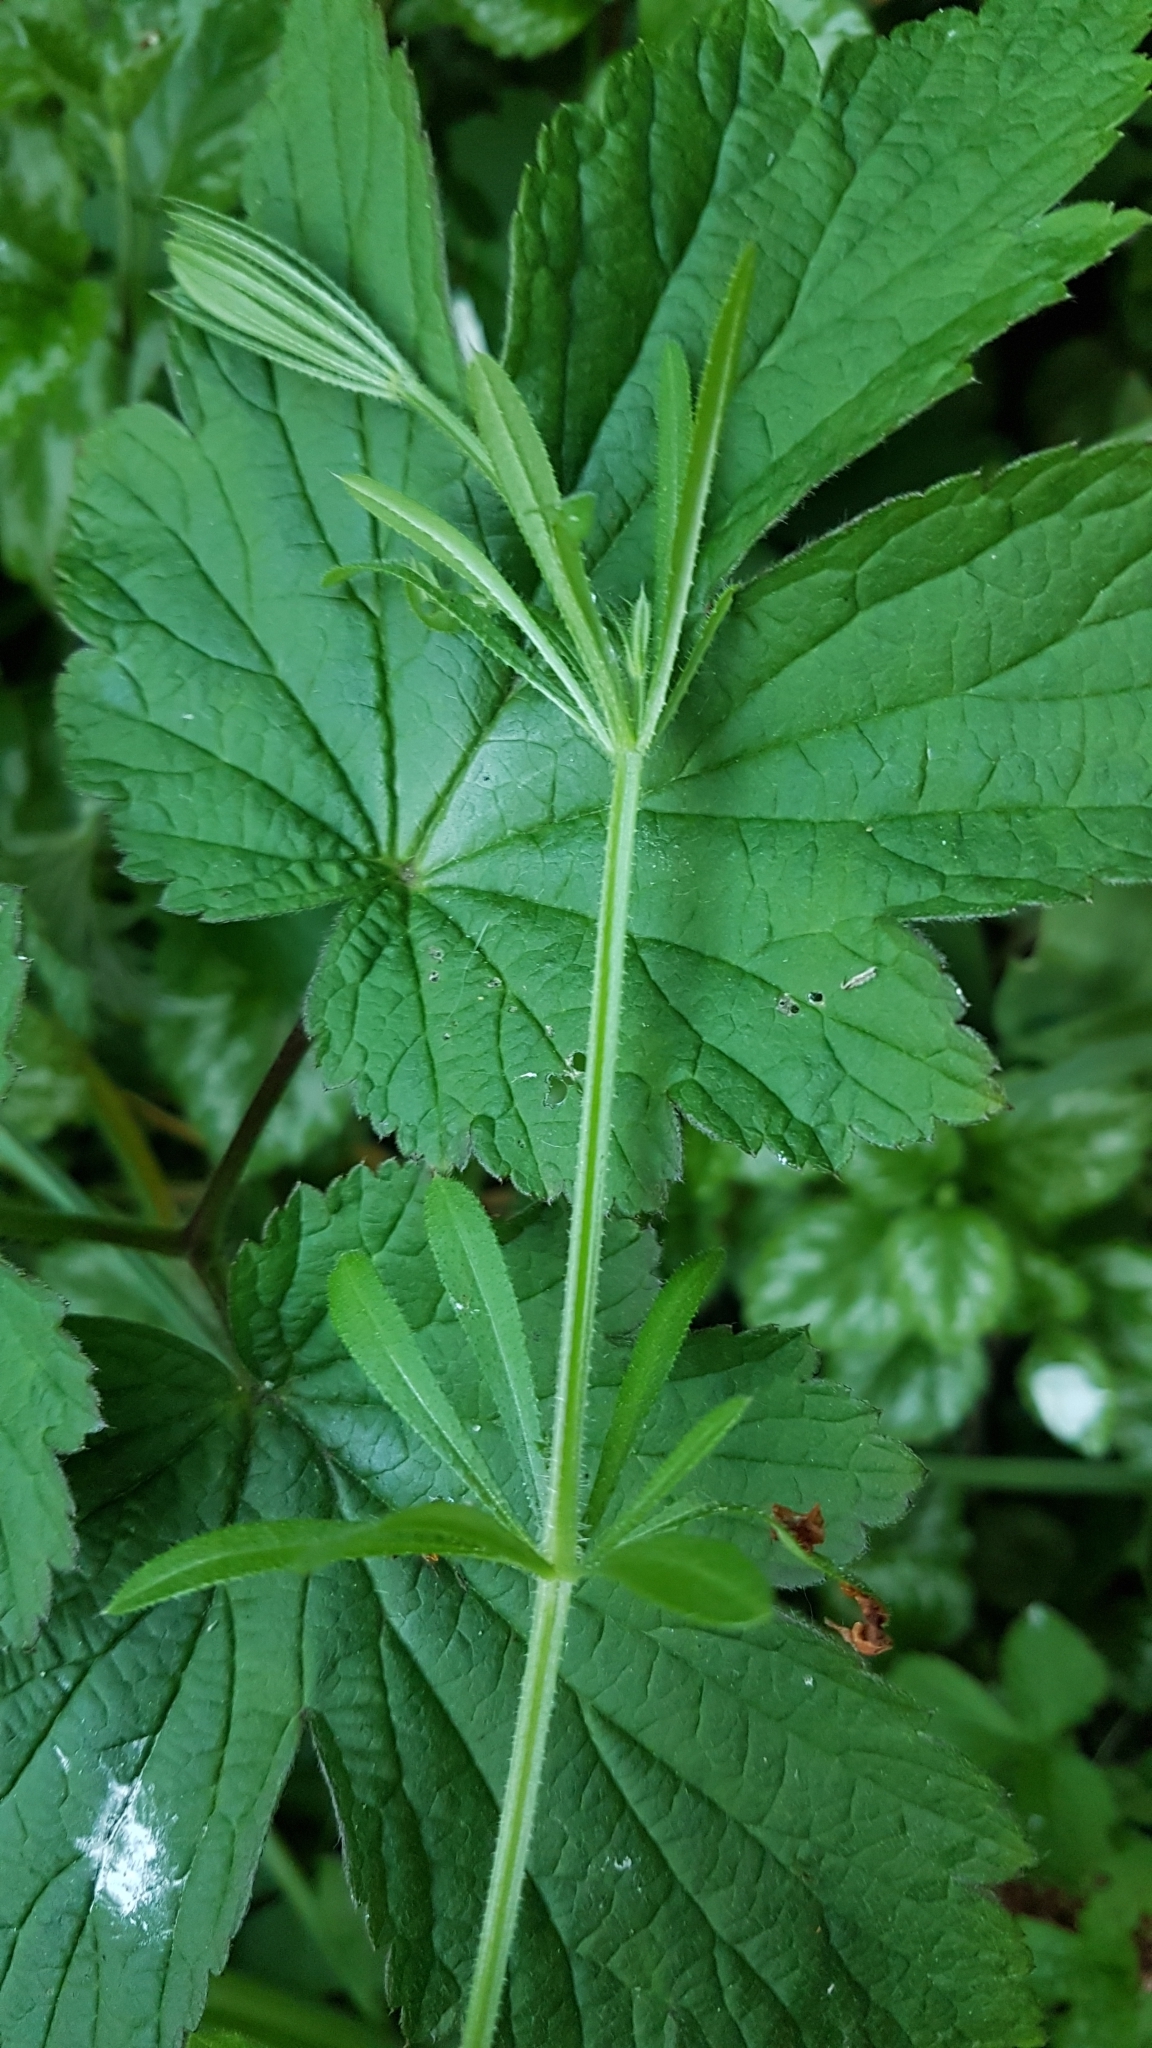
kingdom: Plantae
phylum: Tracheophyta
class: Magnoliopsida
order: Gentianales
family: Rubiaceae
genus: Galium
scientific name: Galium aparine
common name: Cleavers
